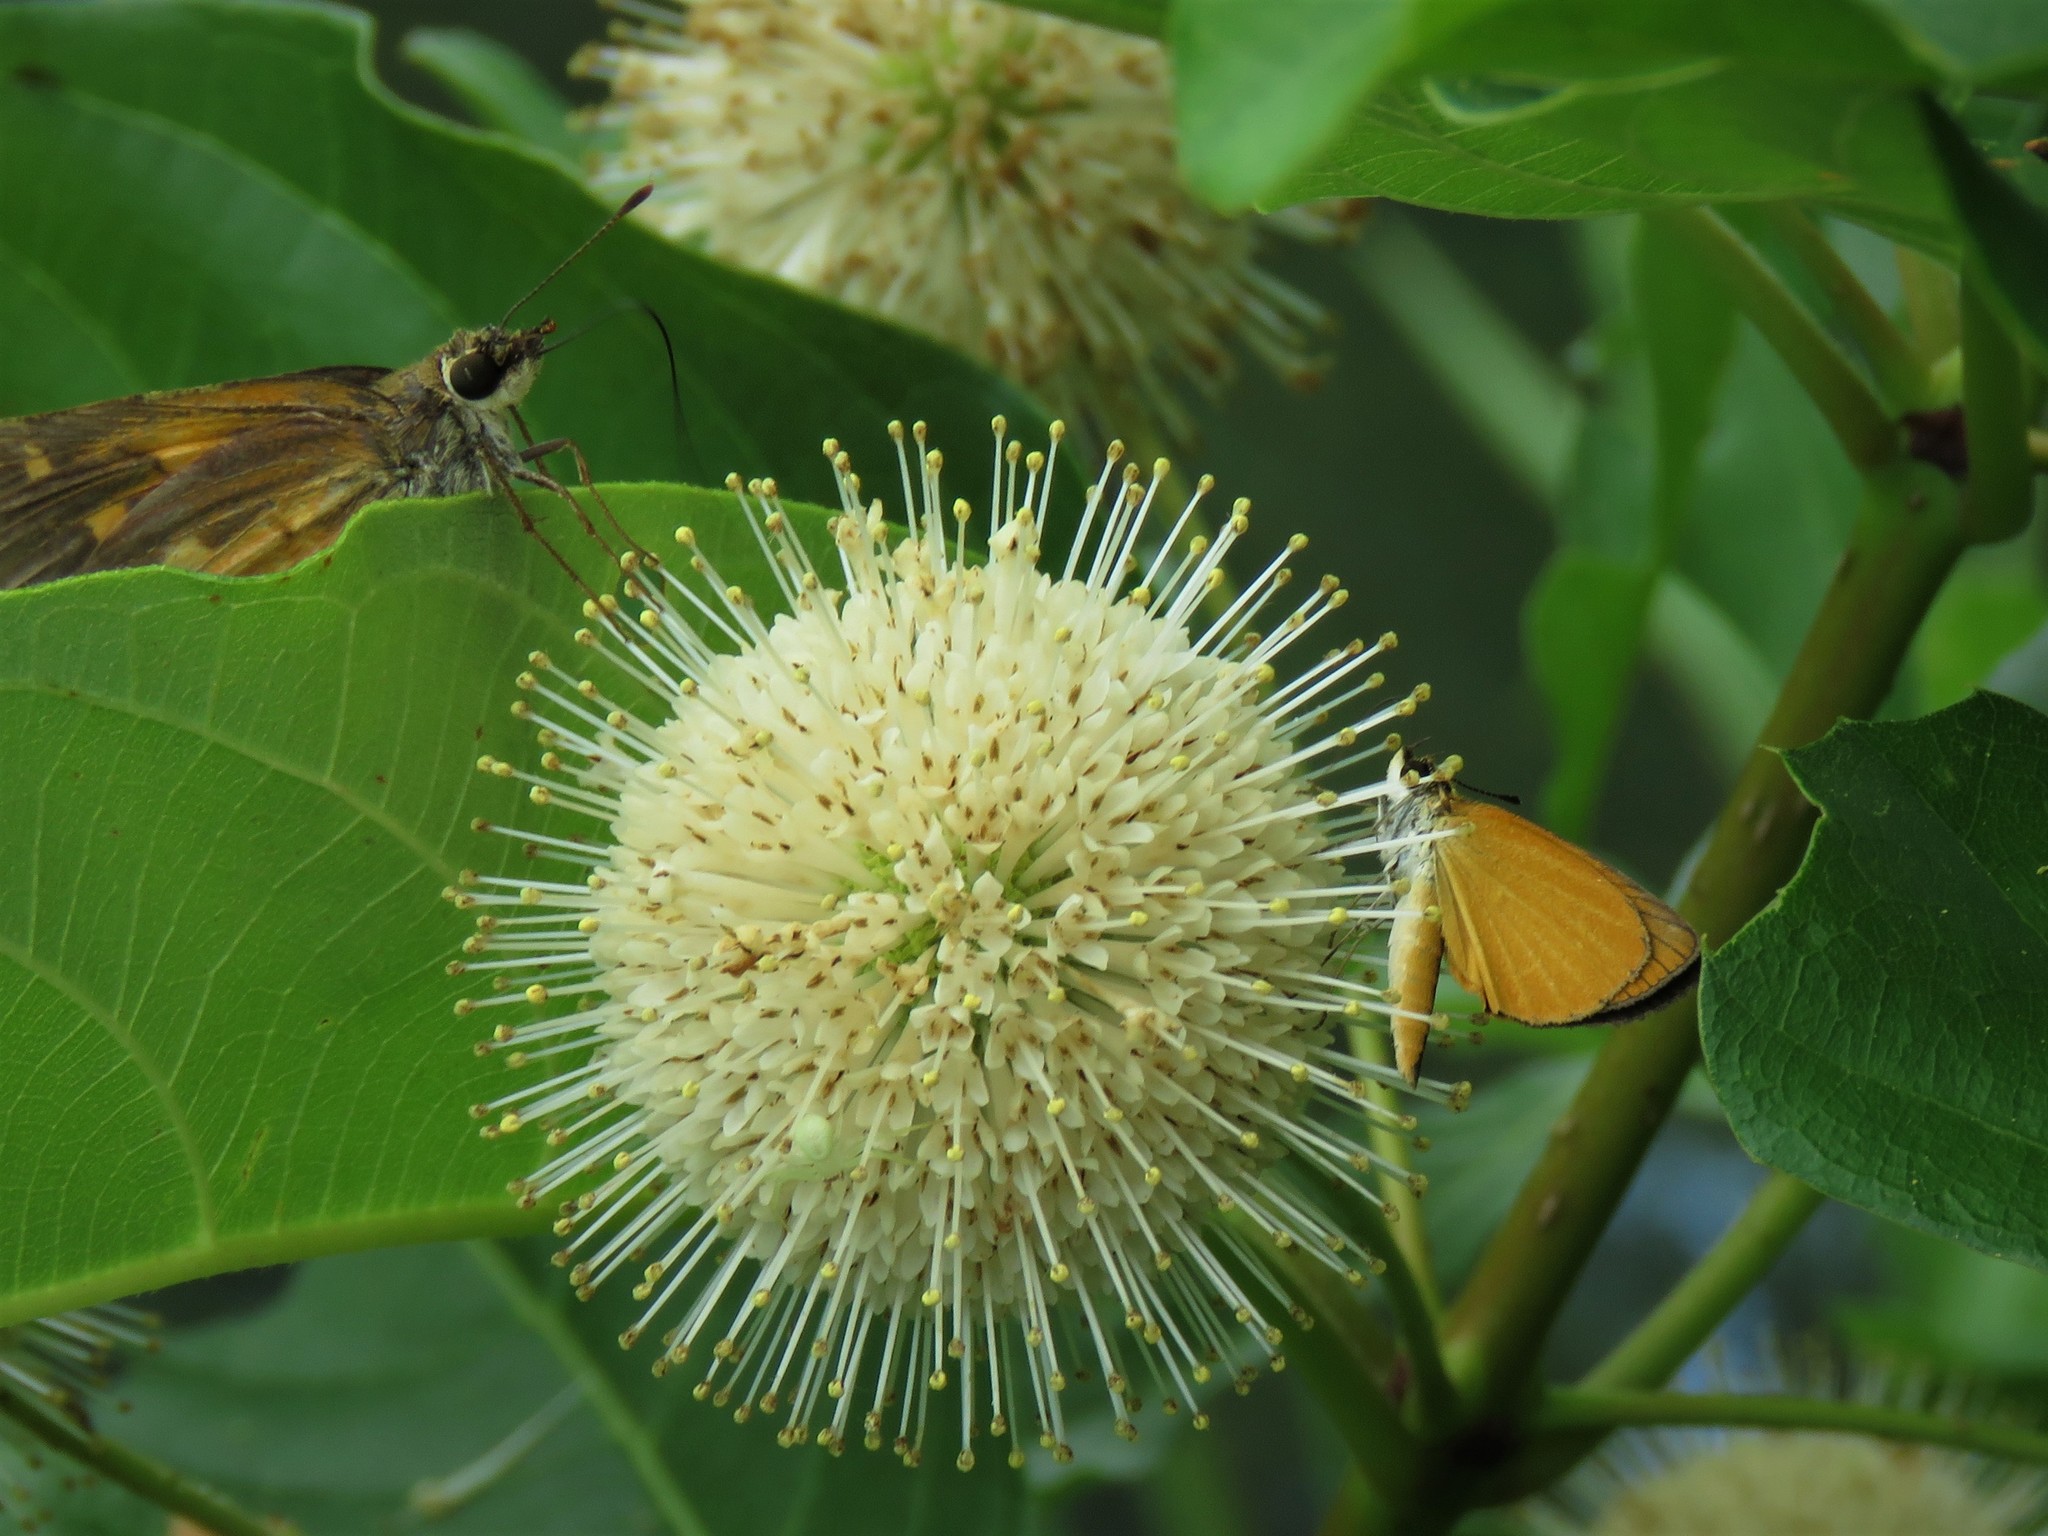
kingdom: Animalia
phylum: Arthropoda
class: Insecta
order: Lepidoptera
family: Hesperiidae
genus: Ancyloxypha
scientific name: Ancyloxypha numitor
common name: Least skipper
